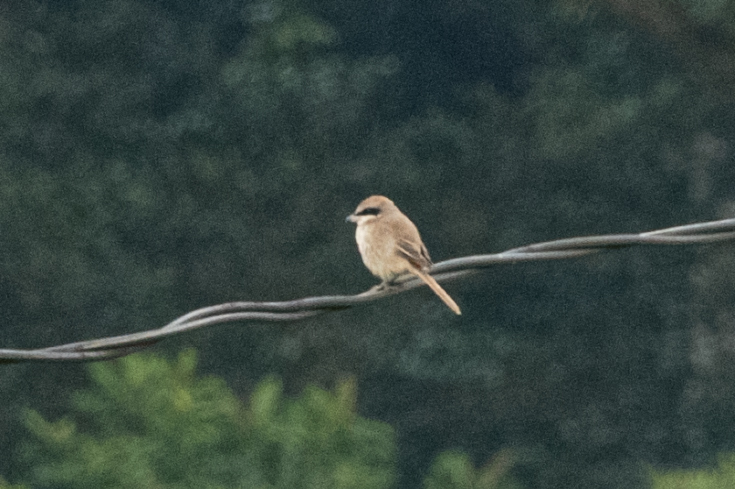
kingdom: Animalia
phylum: Chordata
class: Aves
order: Passeriformes
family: Laniidae
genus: Lanius
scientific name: Lanius cristatus
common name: Brown shrike
